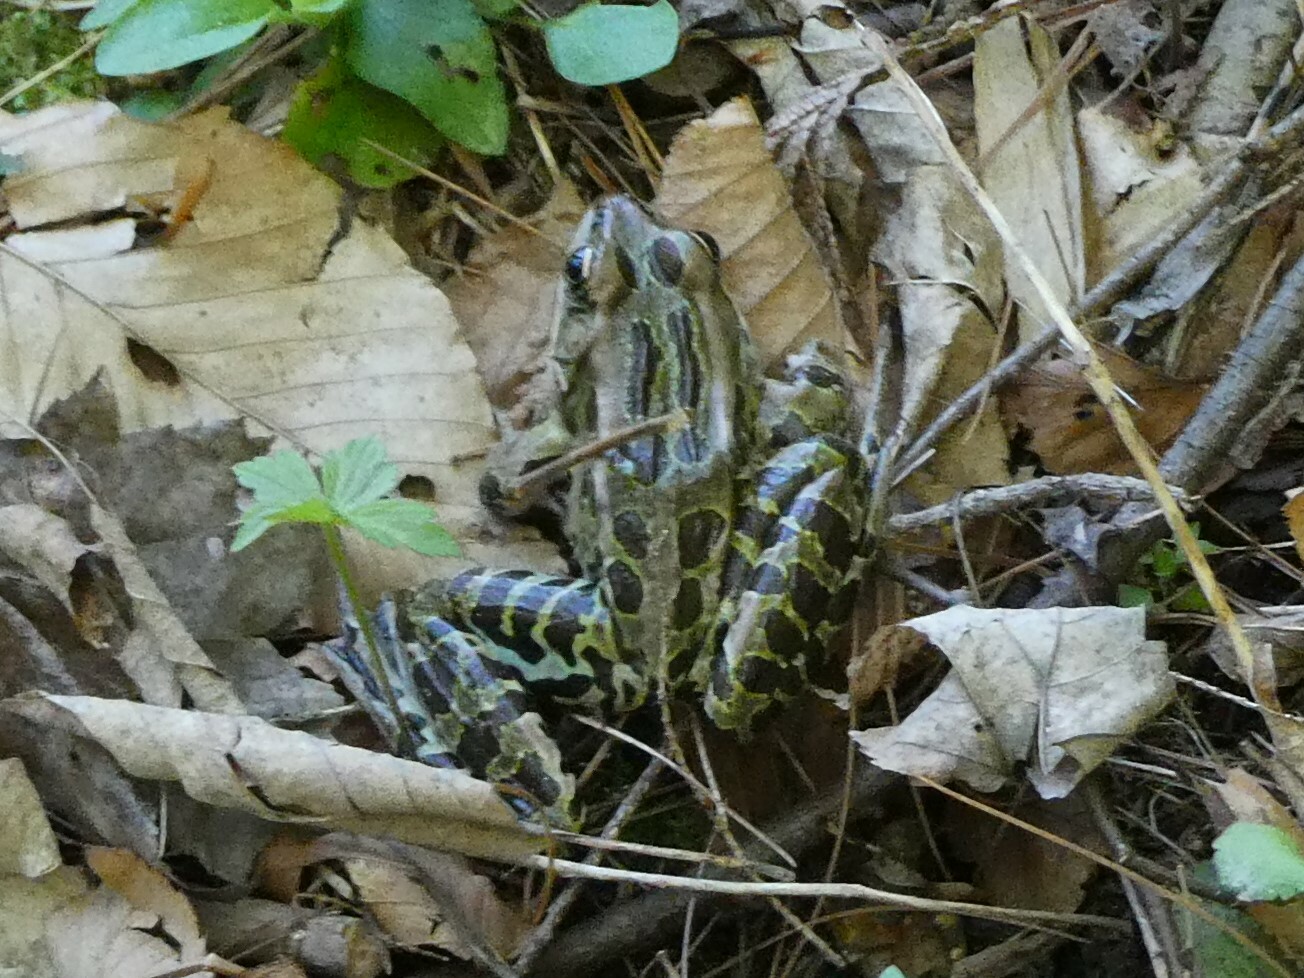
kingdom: Animalia
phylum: Chordata
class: Amphibia
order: Anura
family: Ranidae
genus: Lithobates
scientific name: Lithobates pipiens
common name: Northern leopard frog
